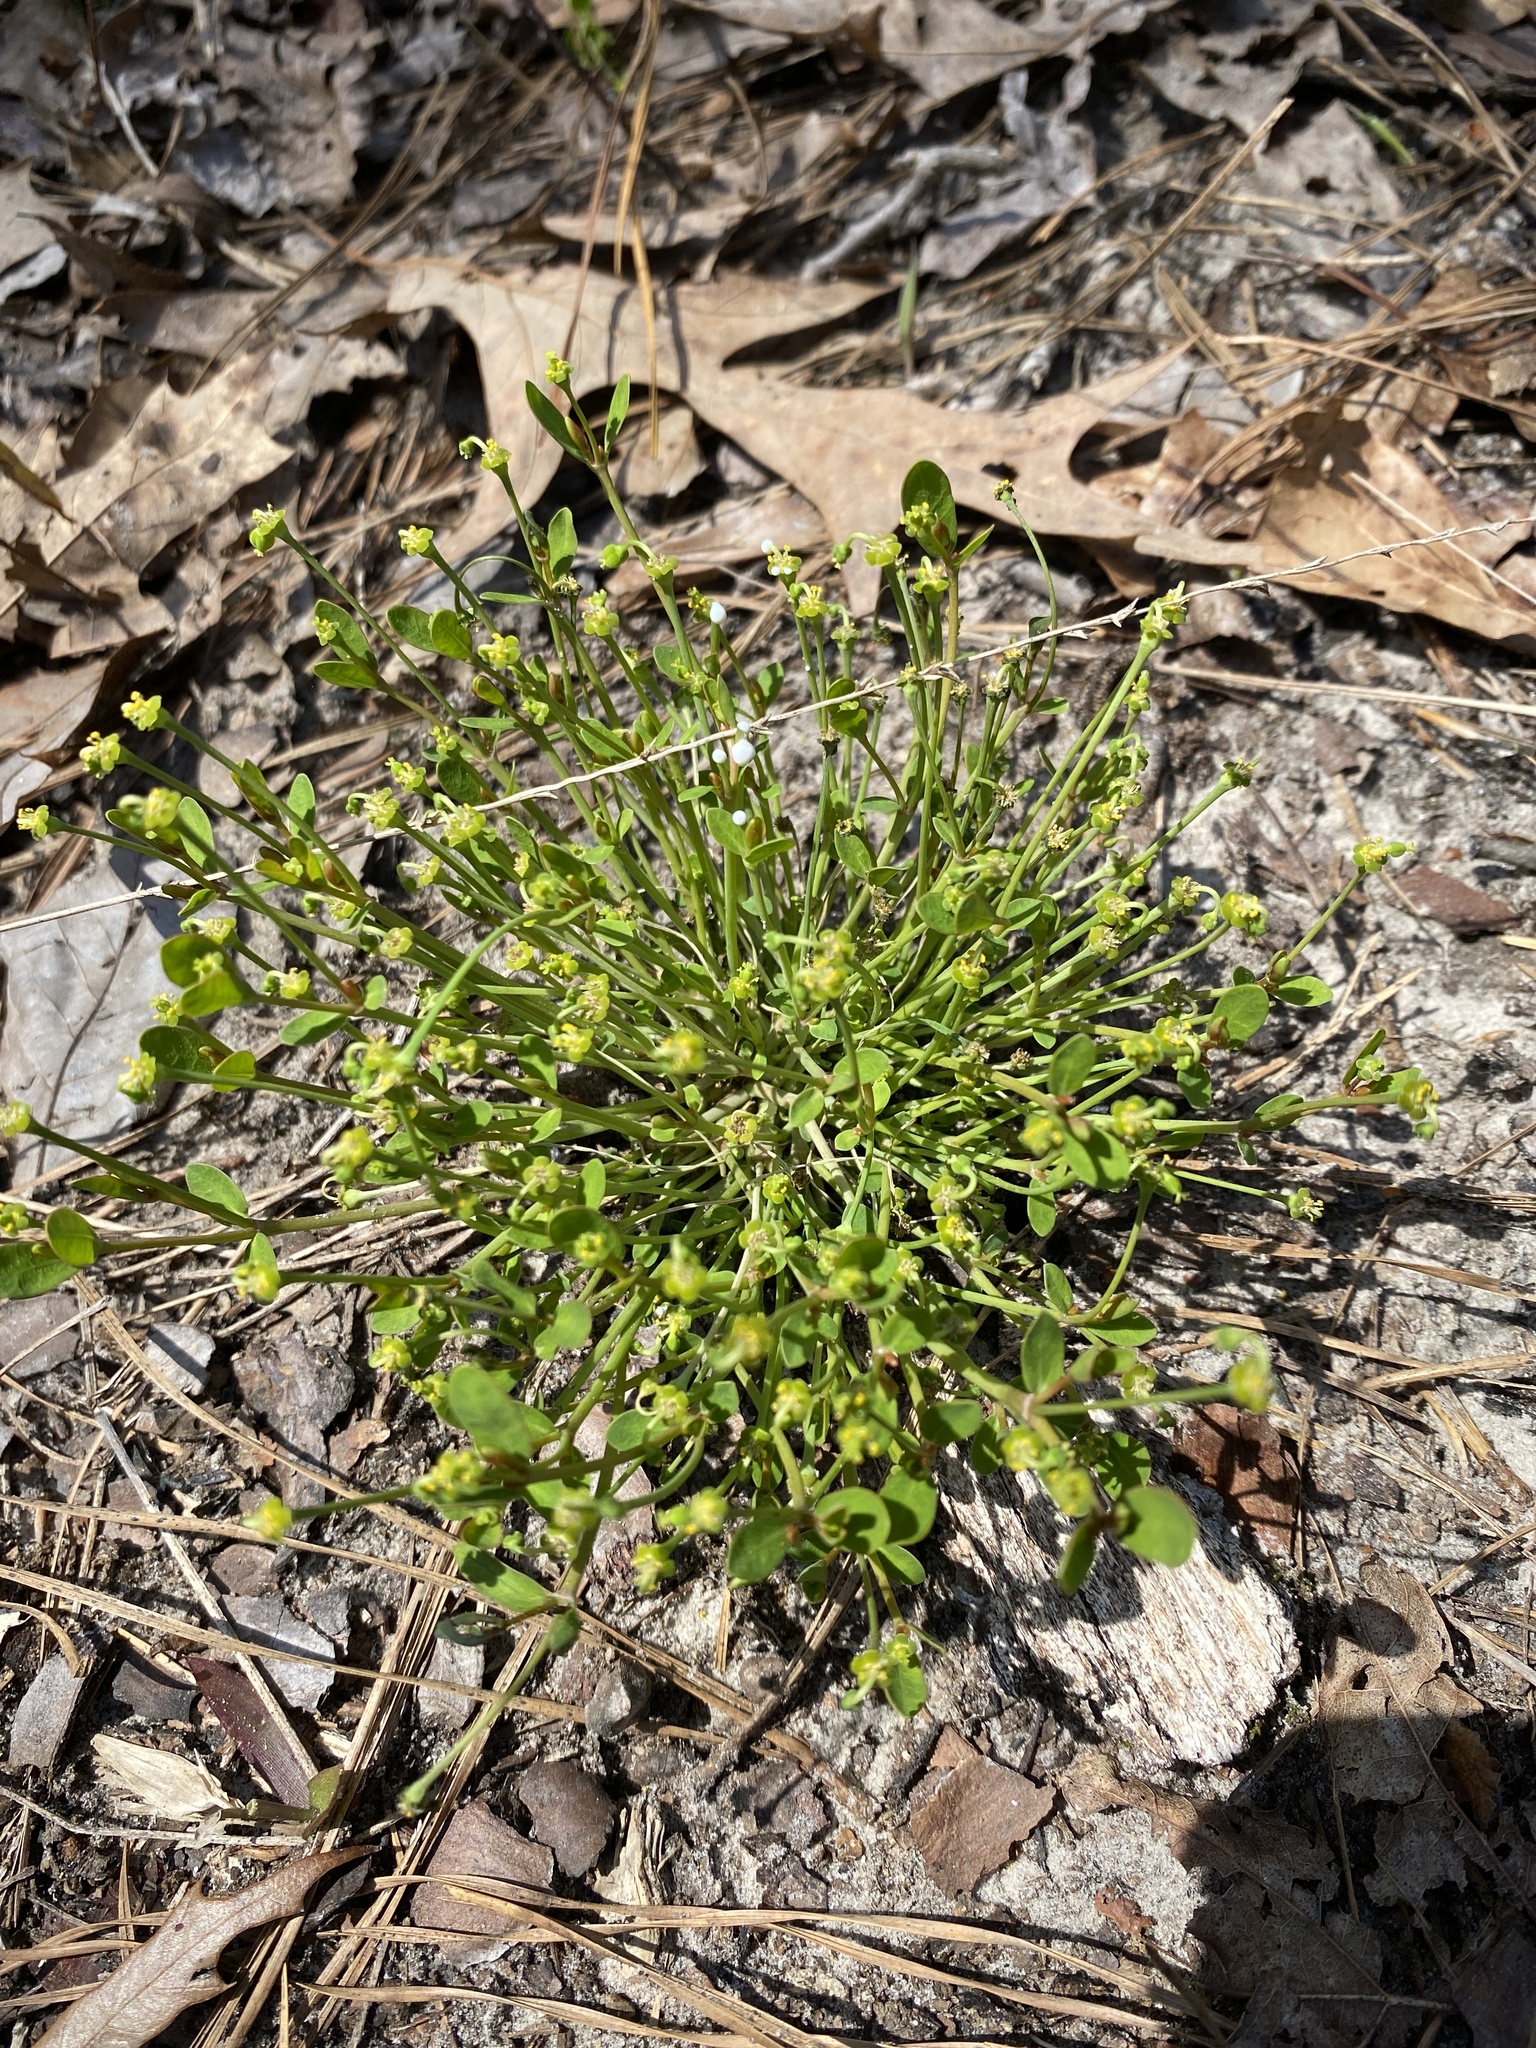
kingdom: Plantae
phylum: Tracheophyta
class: Magnoliopsida
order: Malpighiales
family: Euphorbiaceae
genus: Euphorbia
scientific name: Euphorbia ipecacuanhae
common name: Carolina ipecac
